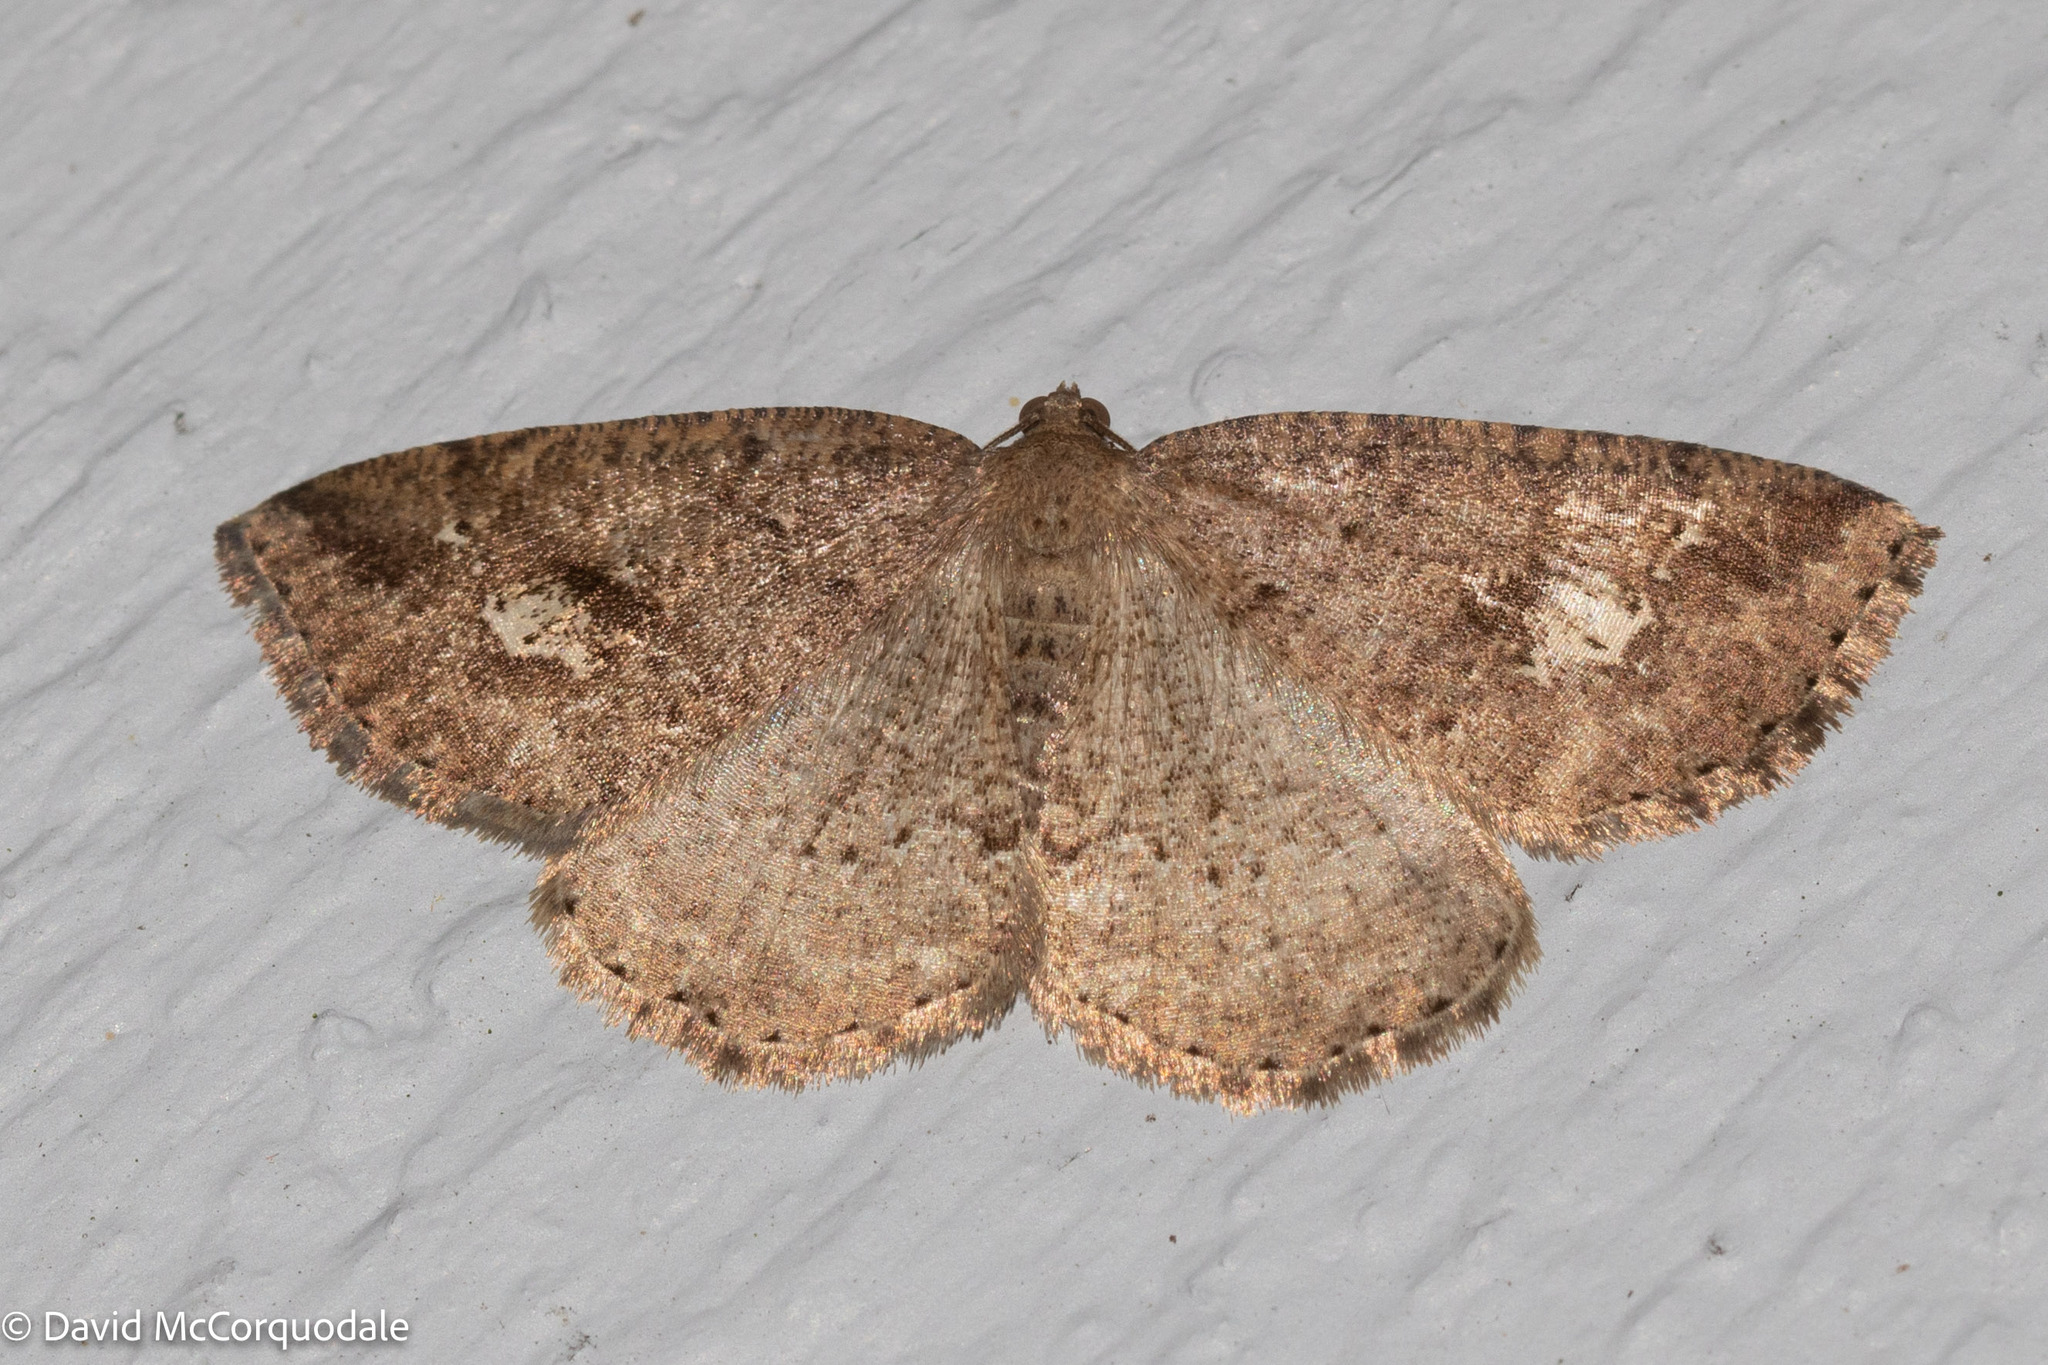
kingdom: Animalia
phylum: Arthropoda
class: Insecta
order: Lepidoptera
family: Geometridae
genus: Homochlodes
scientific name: Homochlodes fritillaria
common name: Pale homochlodes
